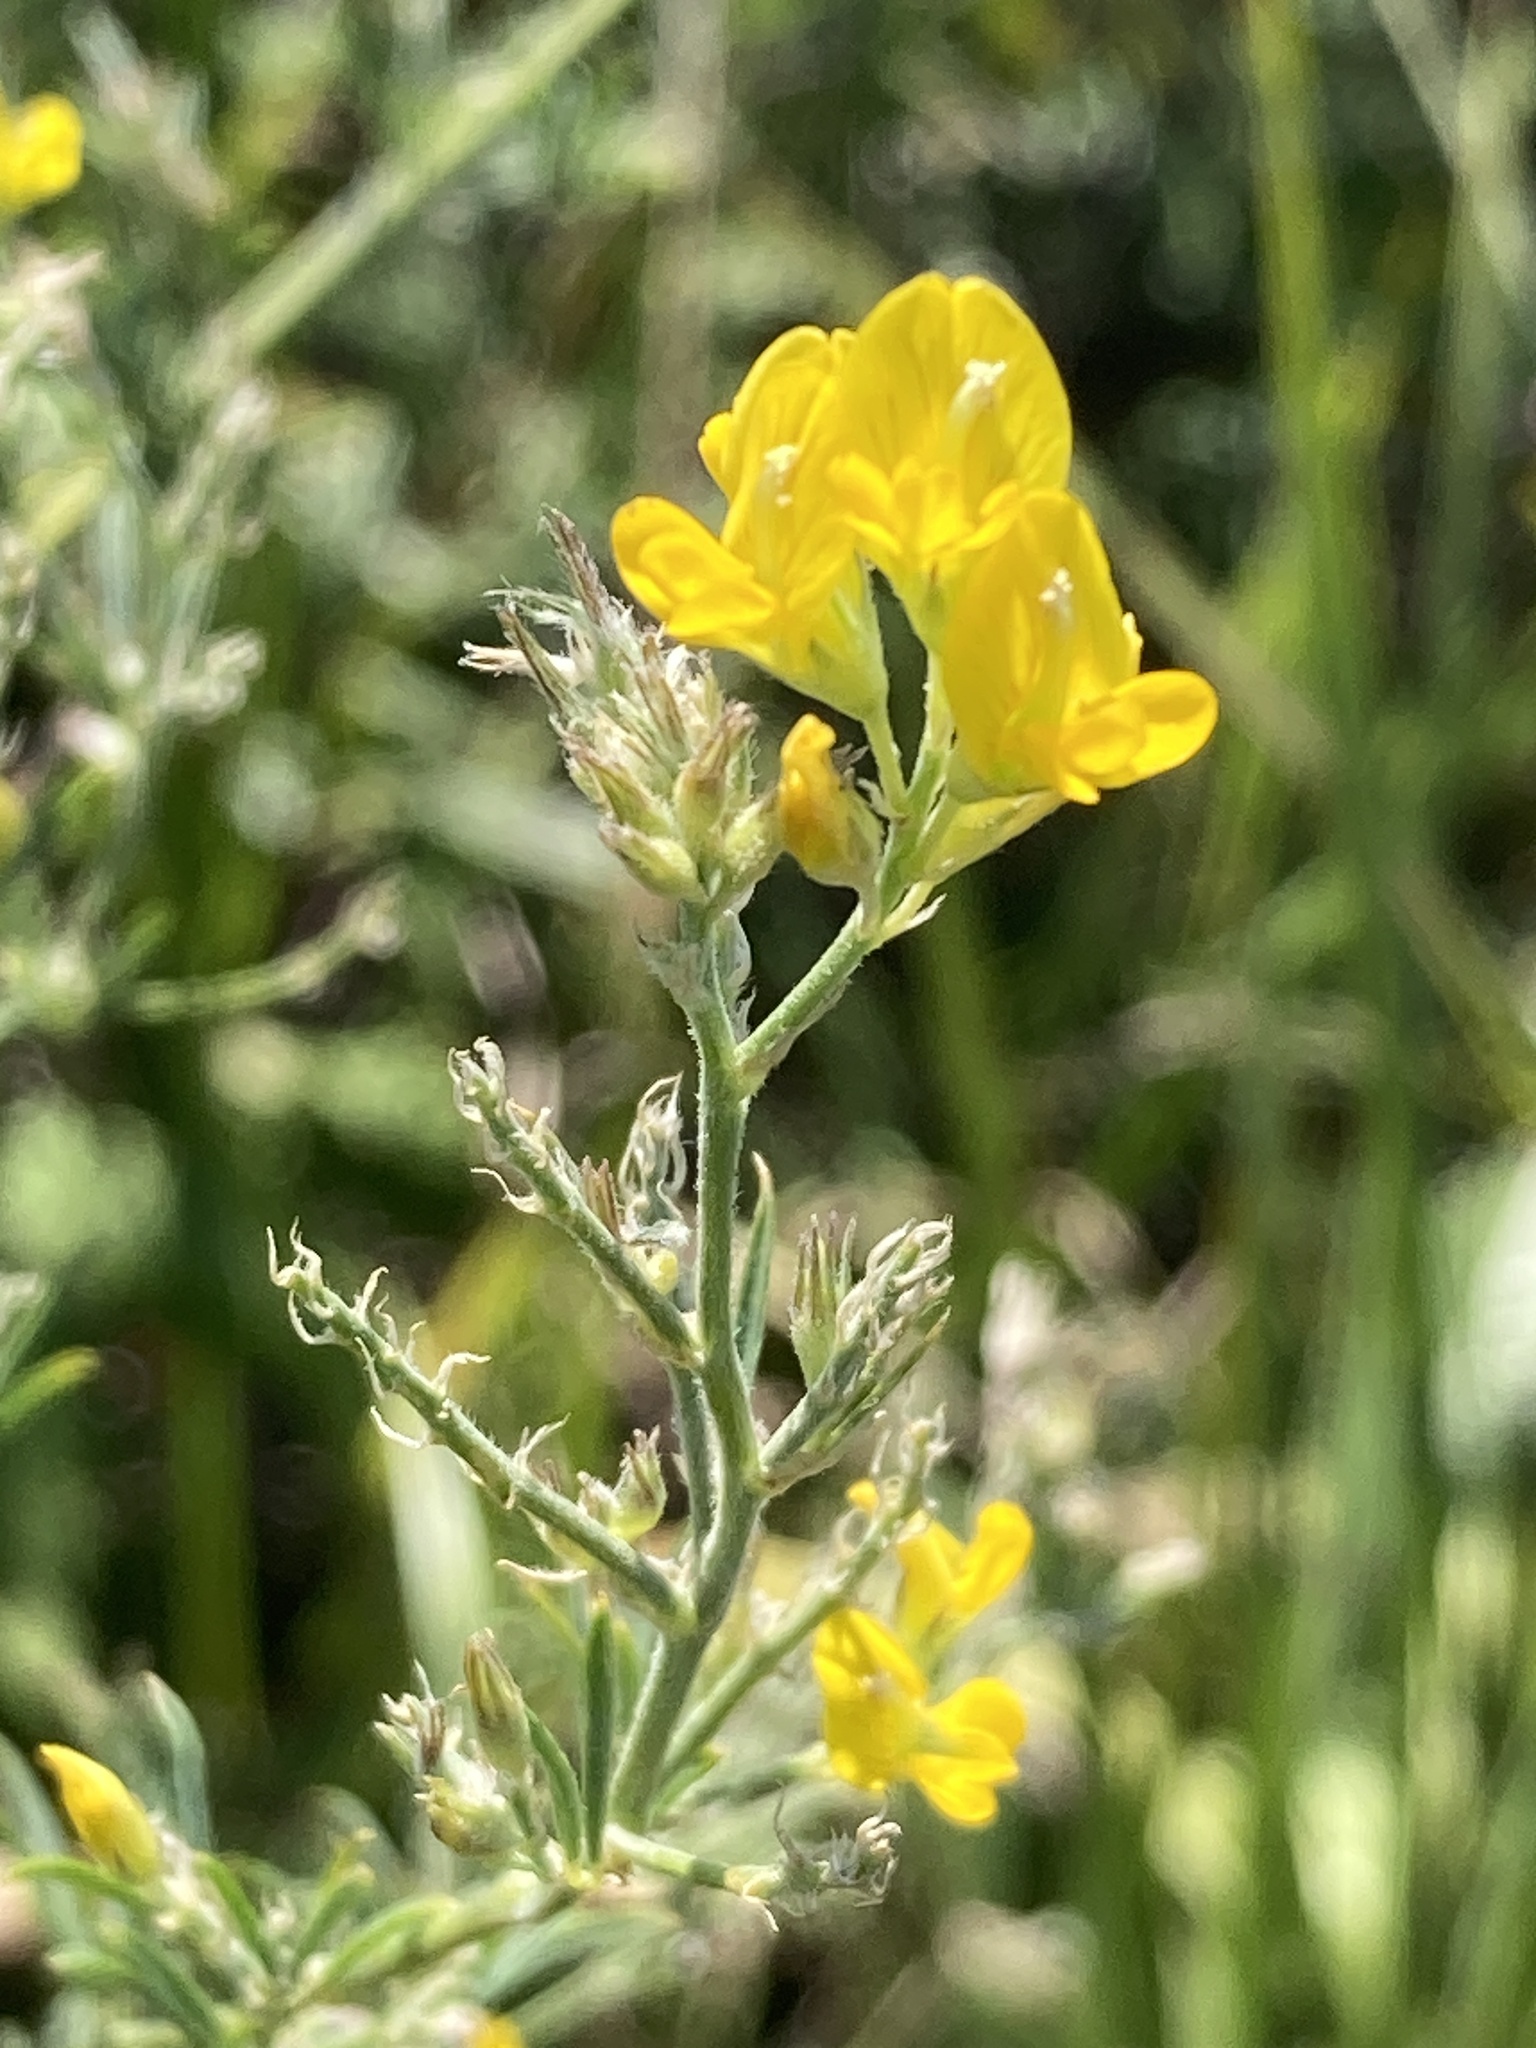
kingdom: Plantae
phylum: Tracheophyta
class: Magnoliopsida
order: Fabales
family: Fabaceae
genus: Medicago
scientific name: Medicago falcata
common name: Sickle medick
